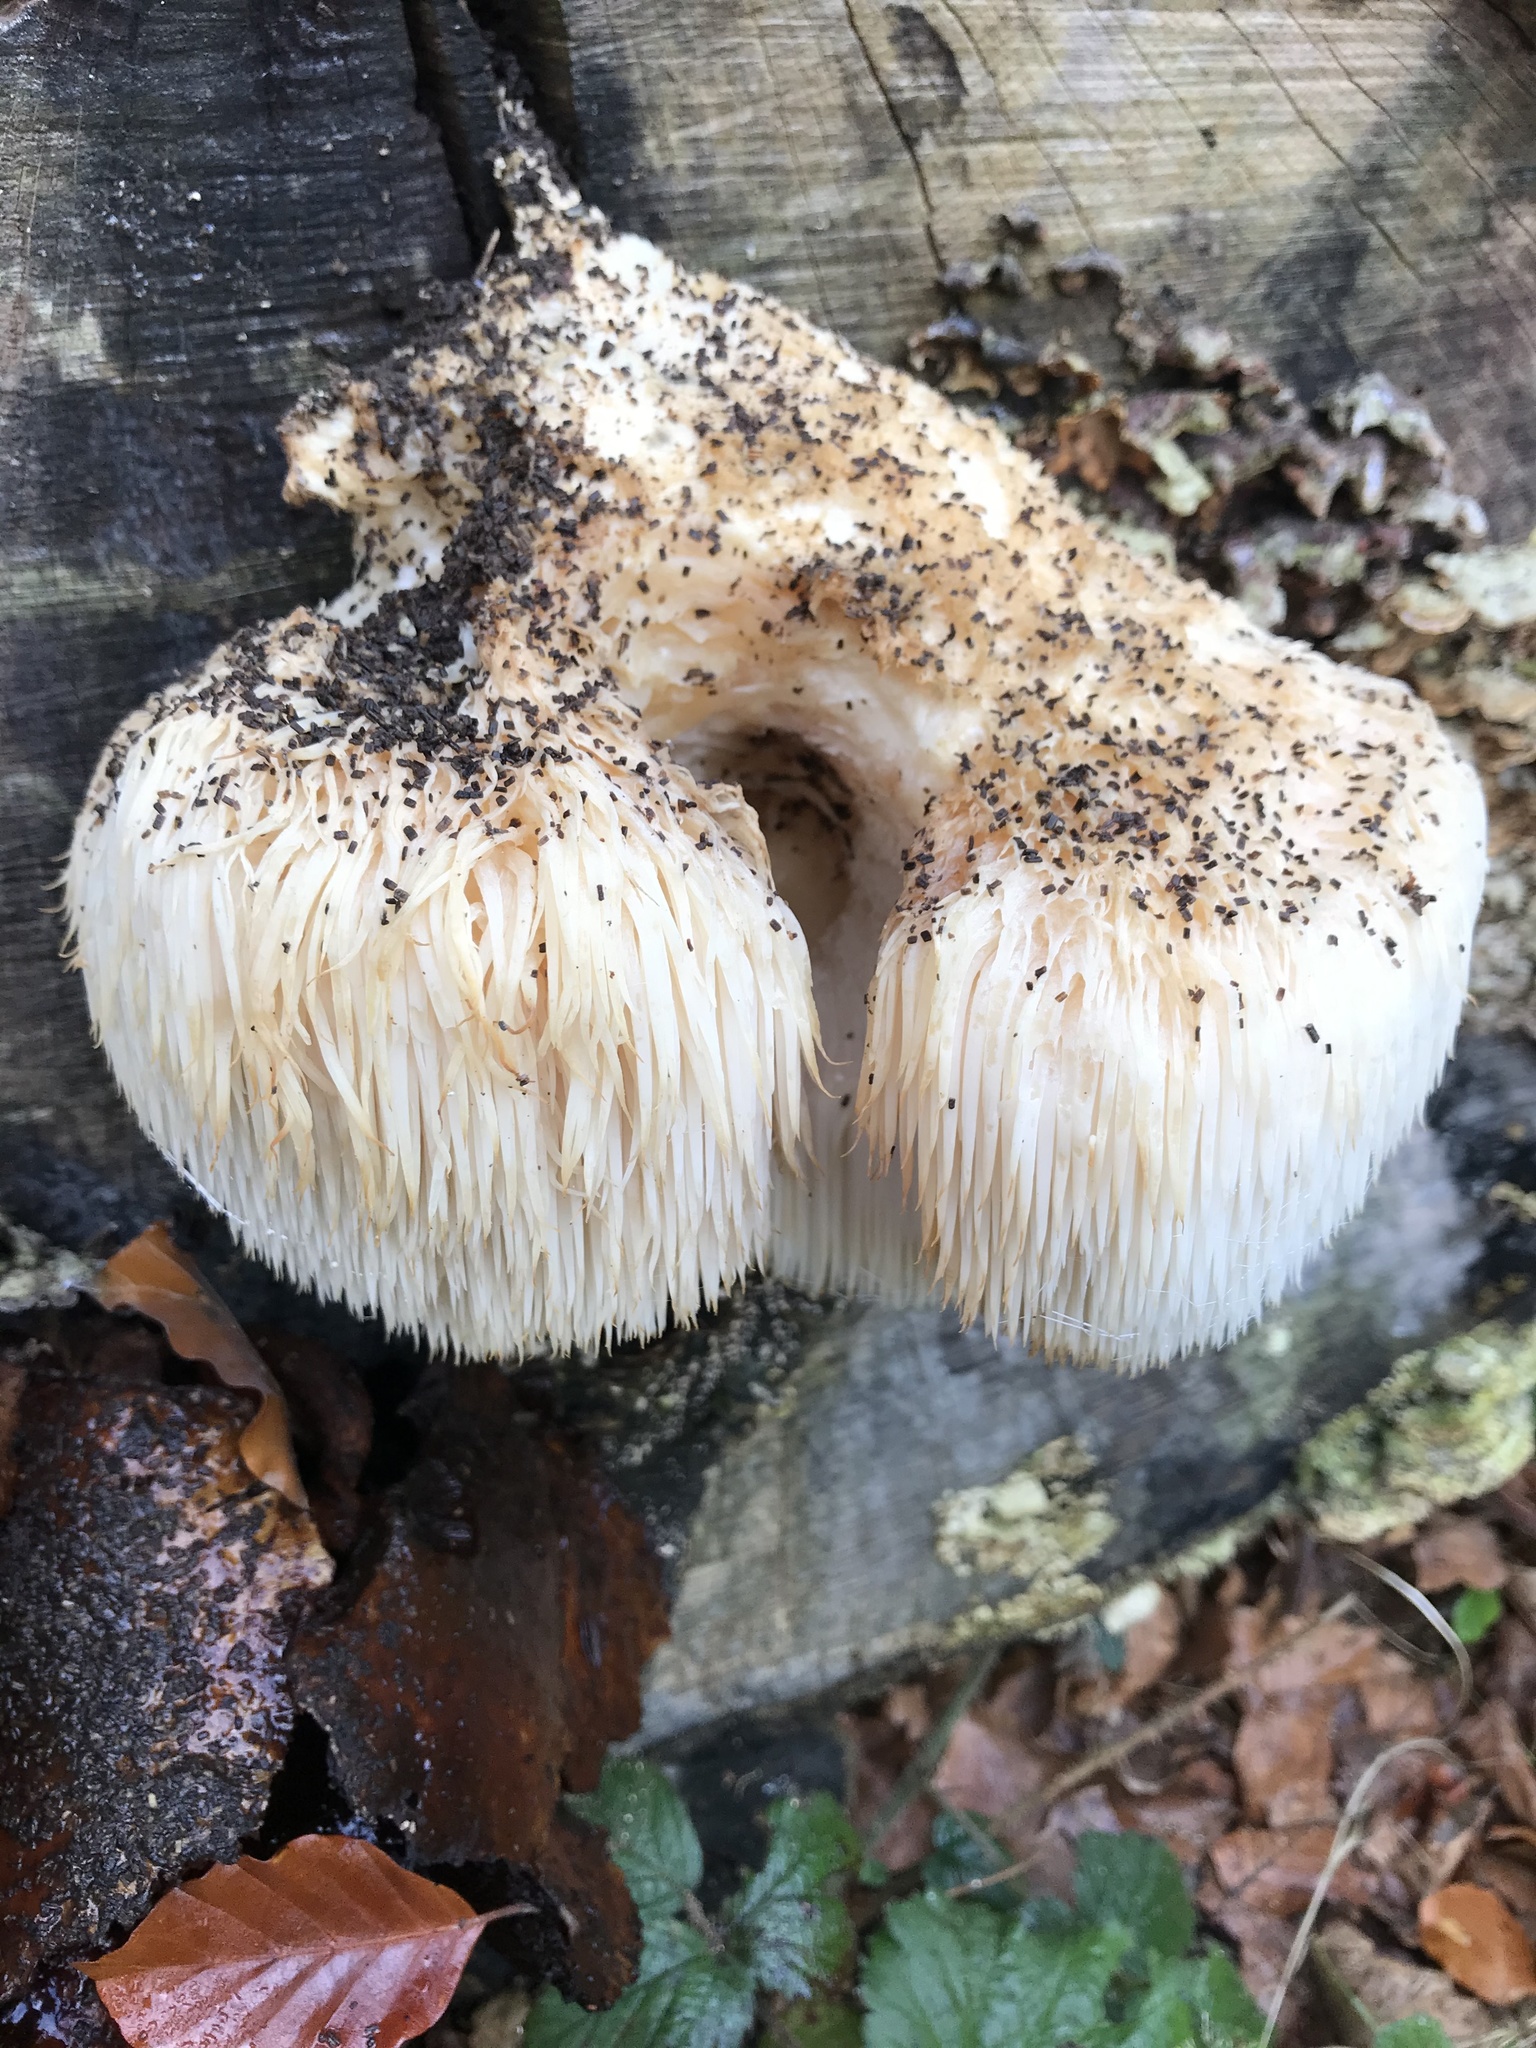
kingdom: Fungi
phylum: Basidiomycota
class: Agaricomycetes
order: Russulales
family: Hericiaceae
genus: Hericium
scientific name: Hericium erinaceus
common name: Bearded tooth
